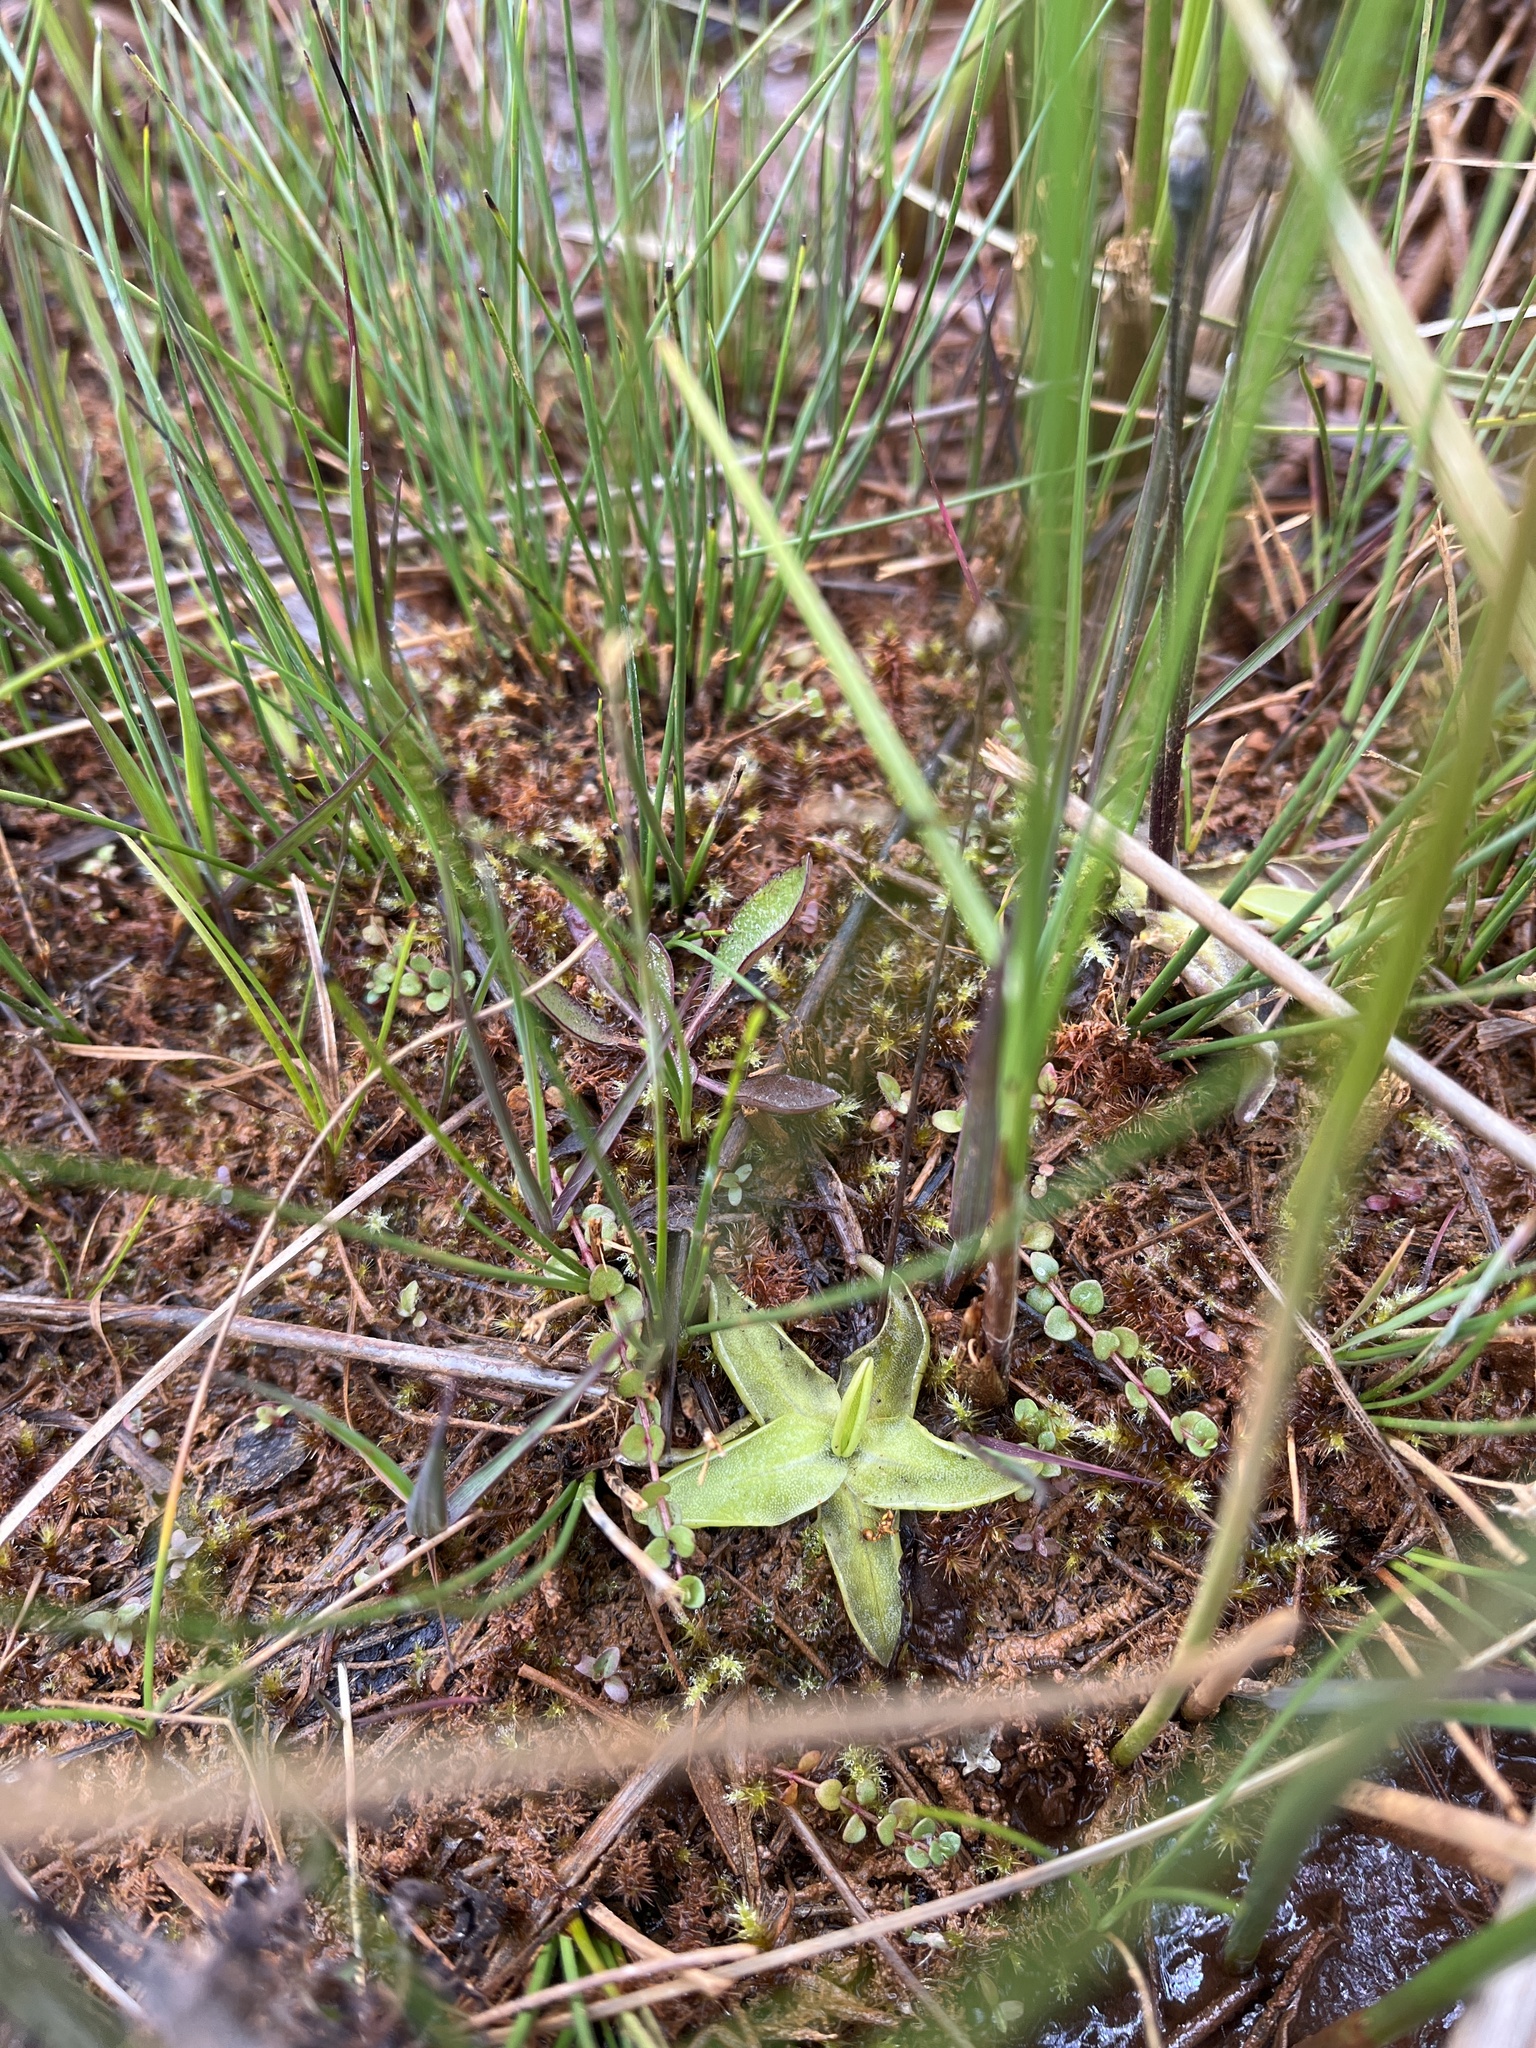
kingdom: Plantae
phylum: Tracheophyta
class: Magnoliopsida
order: Lamiales
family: Lentibulariaceae
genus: Pinguicula
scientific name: Pinguicula vulgaris
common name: Common butterwort
